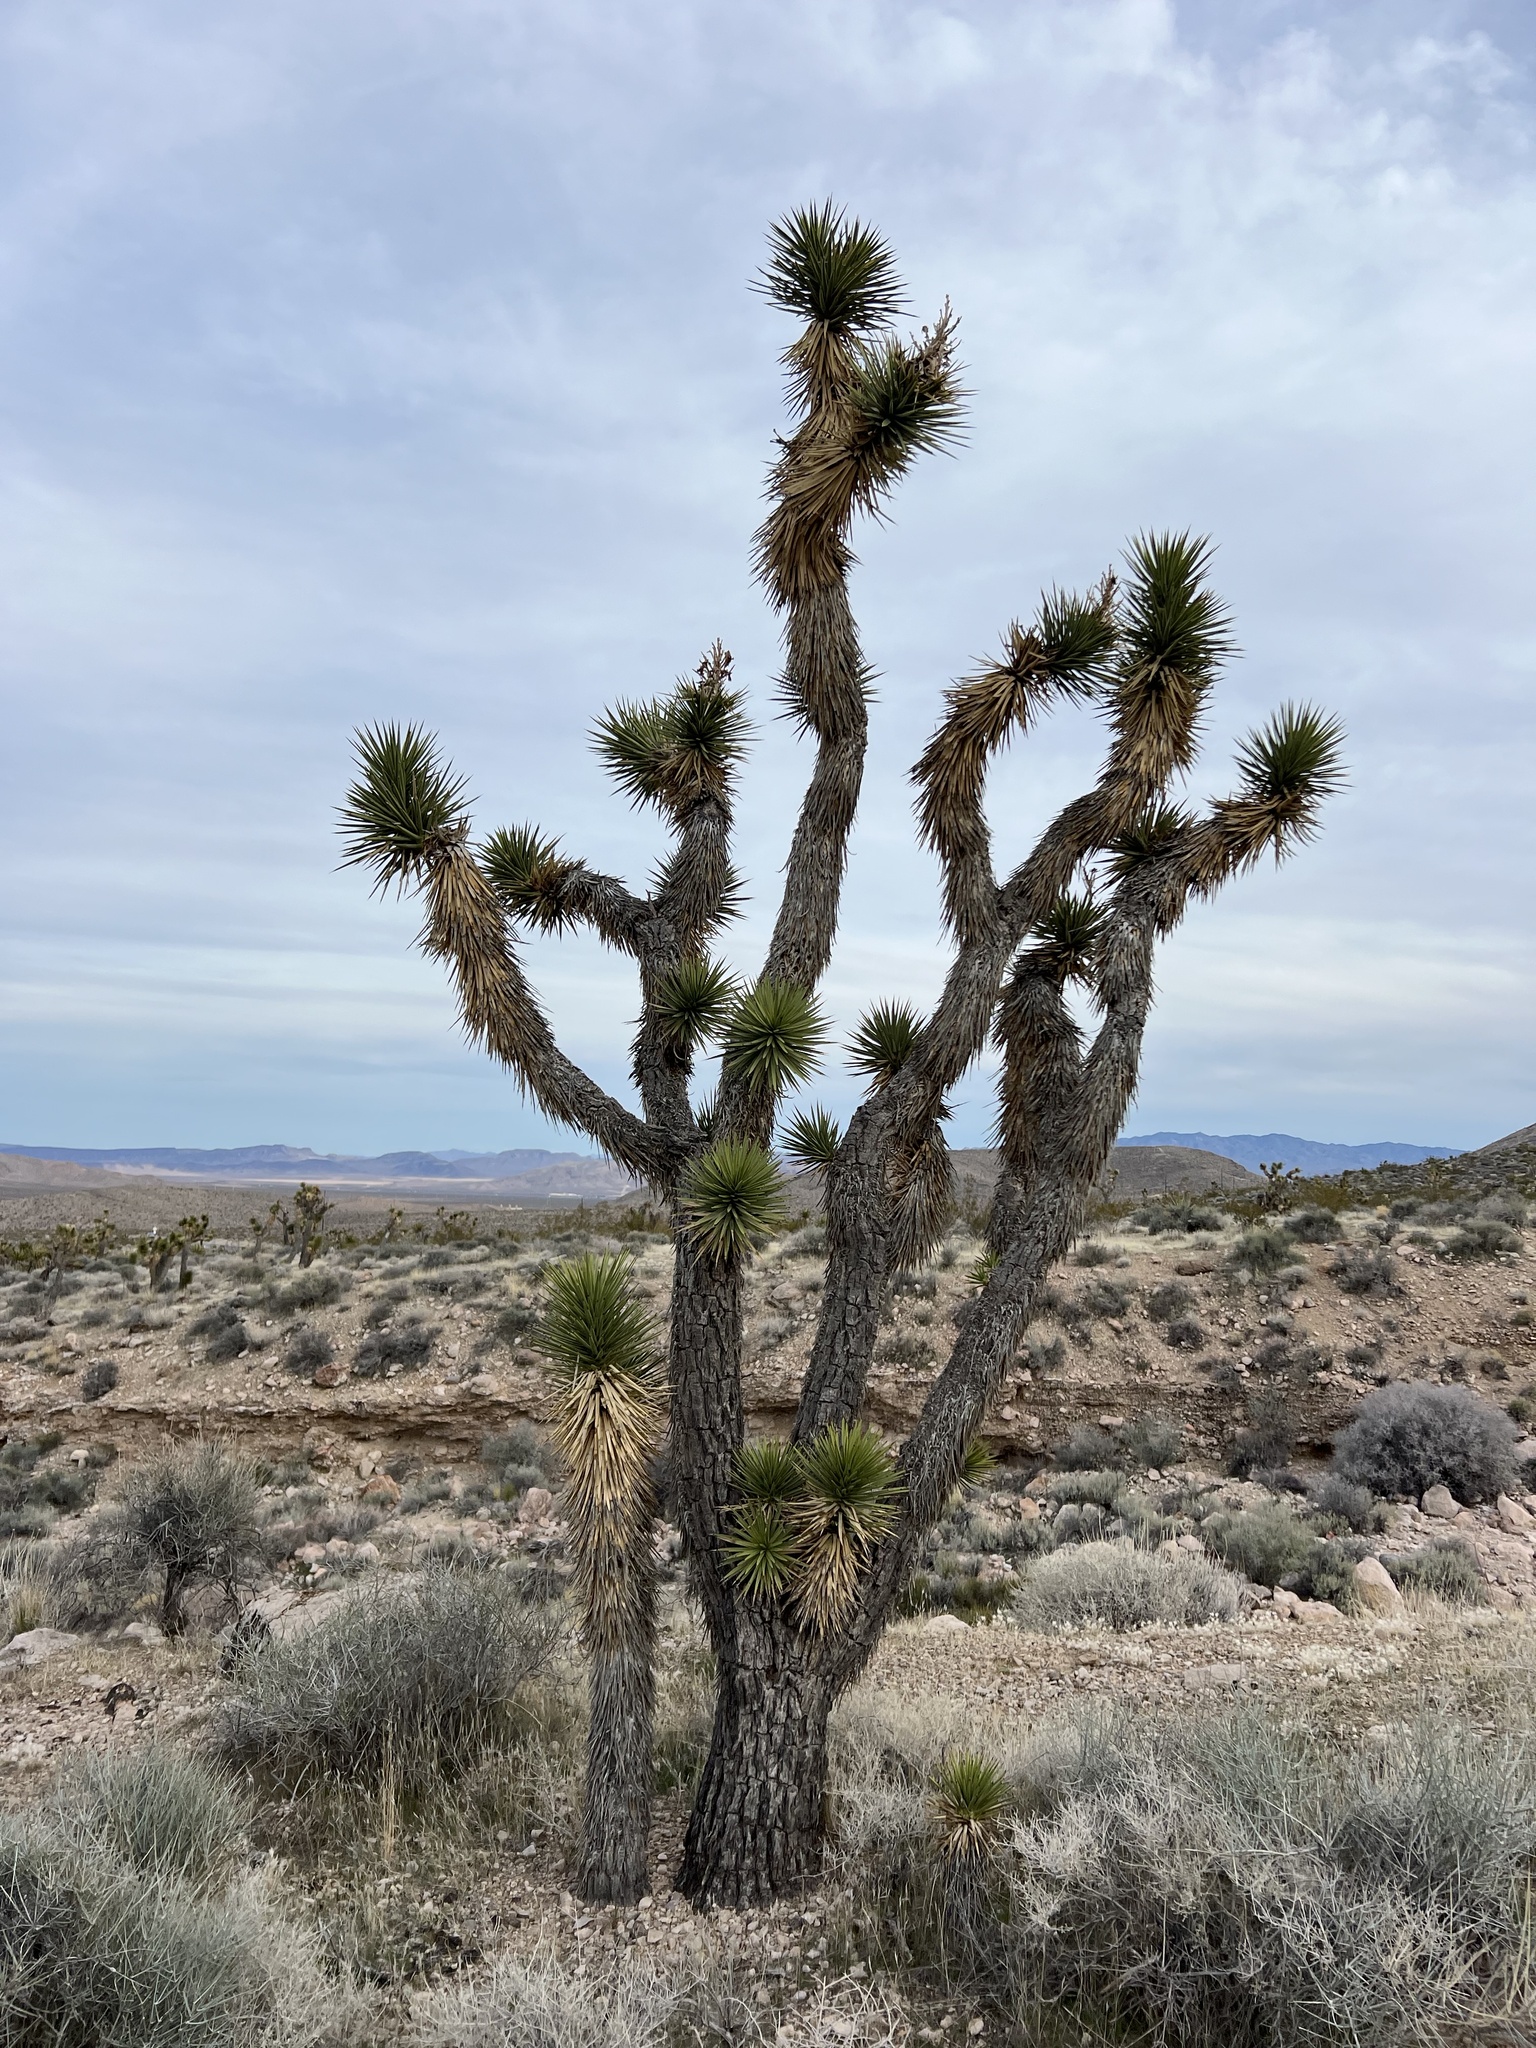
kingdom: Plantae
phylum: Tracheophyta
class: Liliopsida
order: Asparagales
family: Asparagaceae
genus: Yucca
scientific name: Yucca brevifolia
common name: Joshua tree
